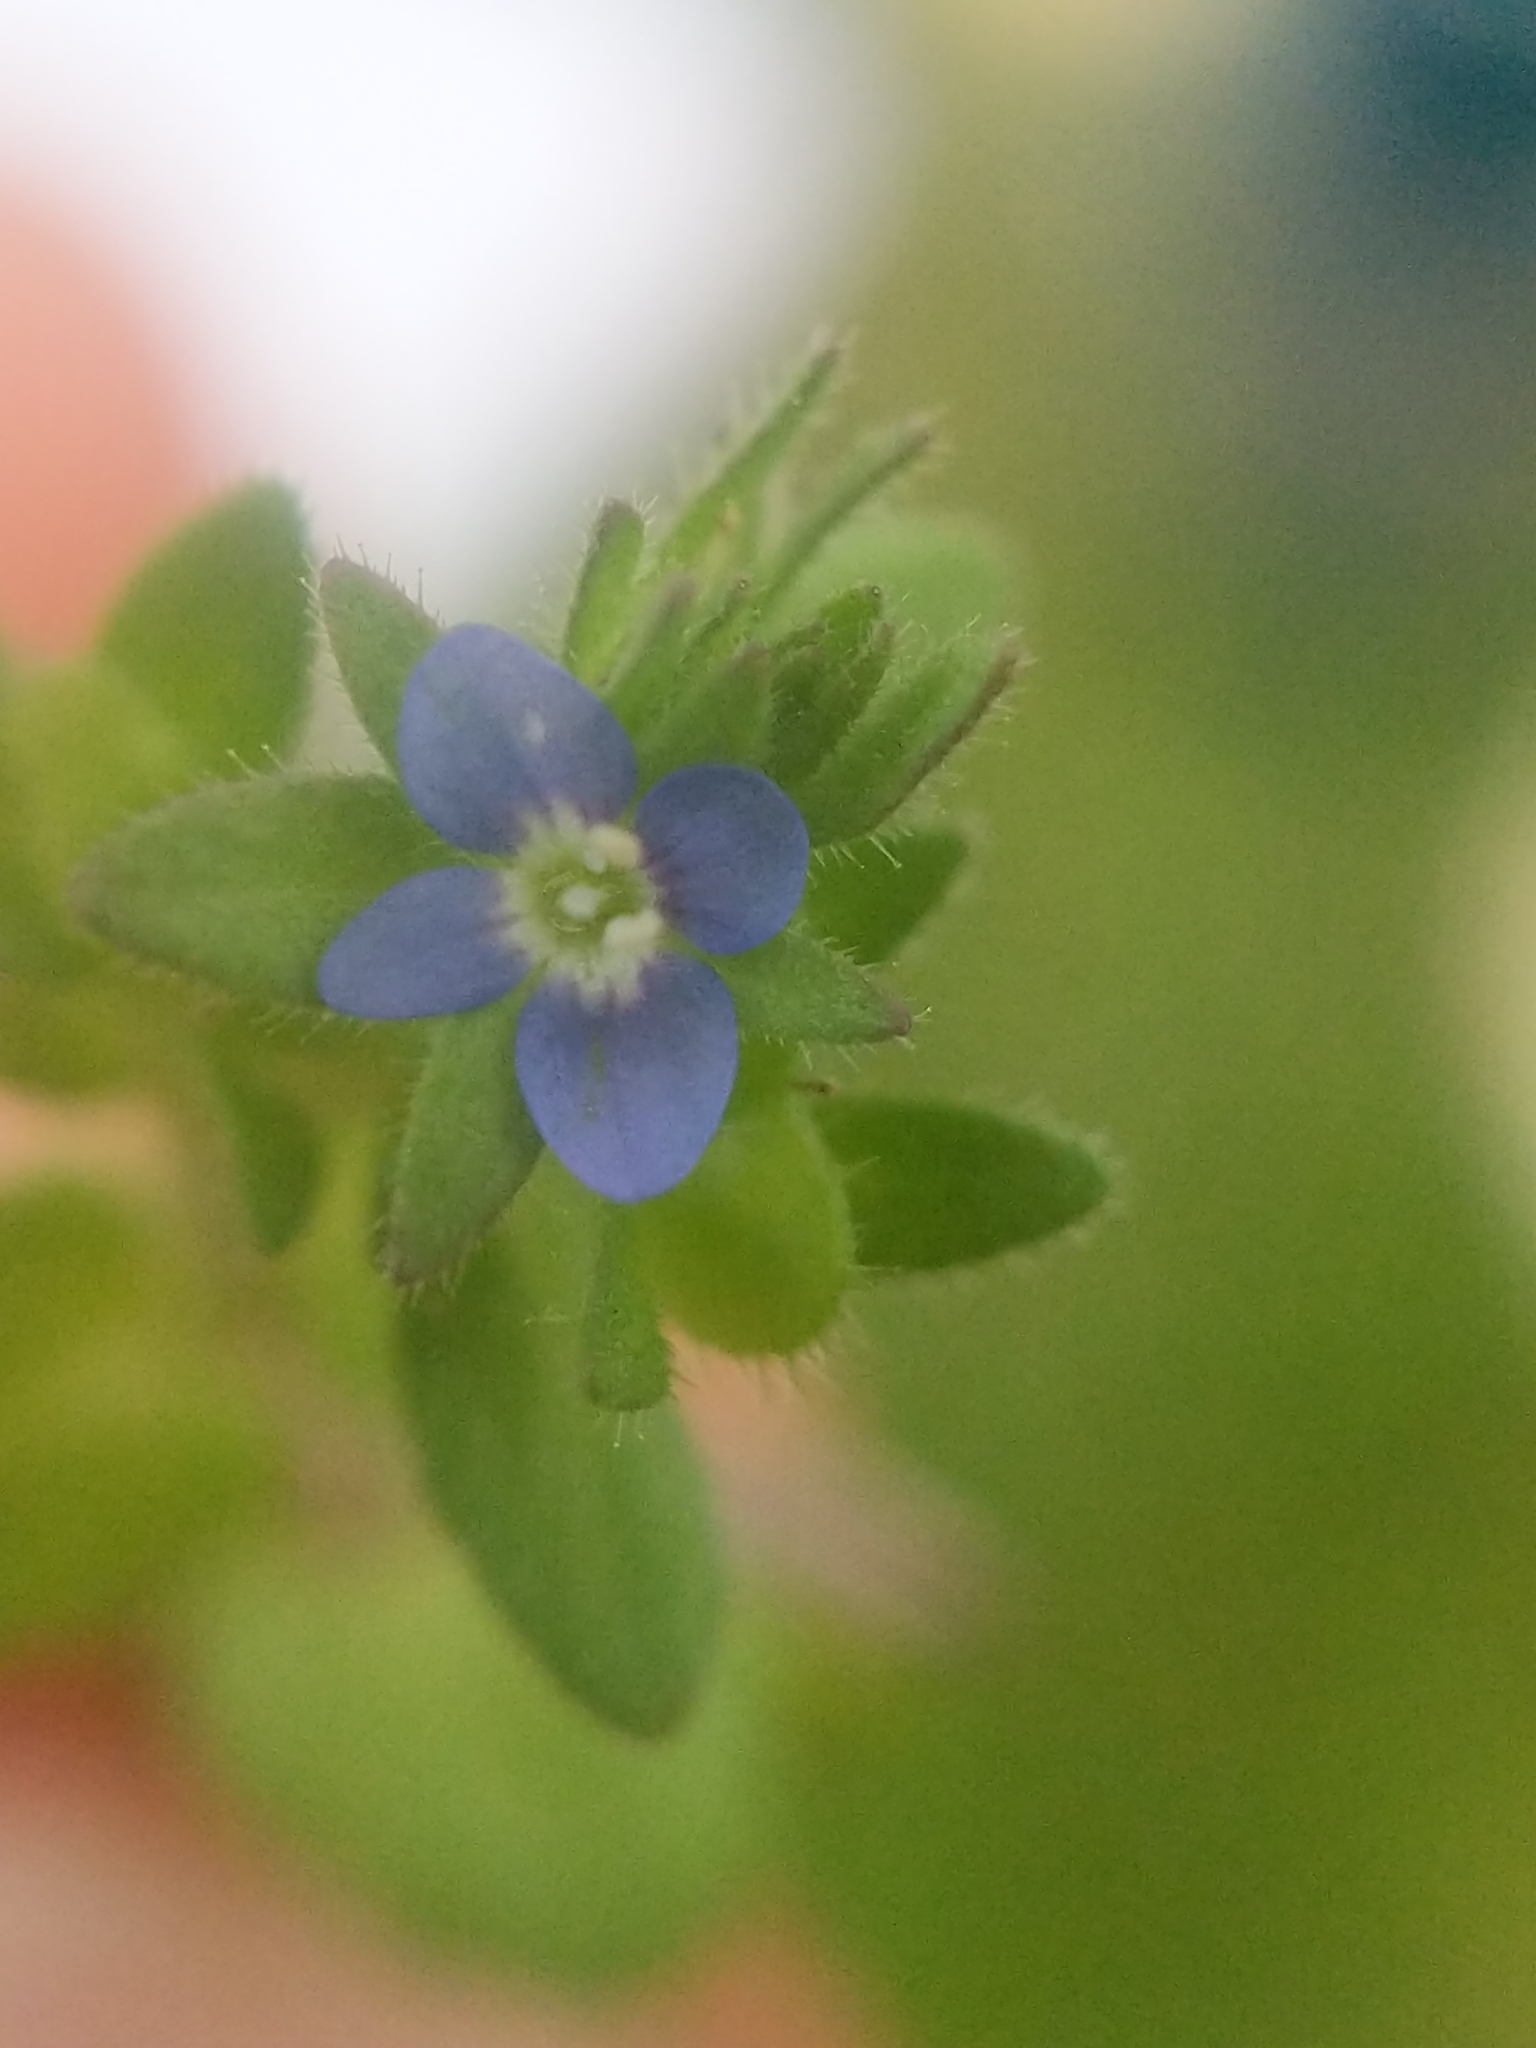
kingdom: Plantae
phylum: Tracheophyta
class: Magnoliopsida
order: Lamiales
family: Plantaginaceae
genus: Veronica
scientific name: Veronica arvensis
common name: Corn speedwell
